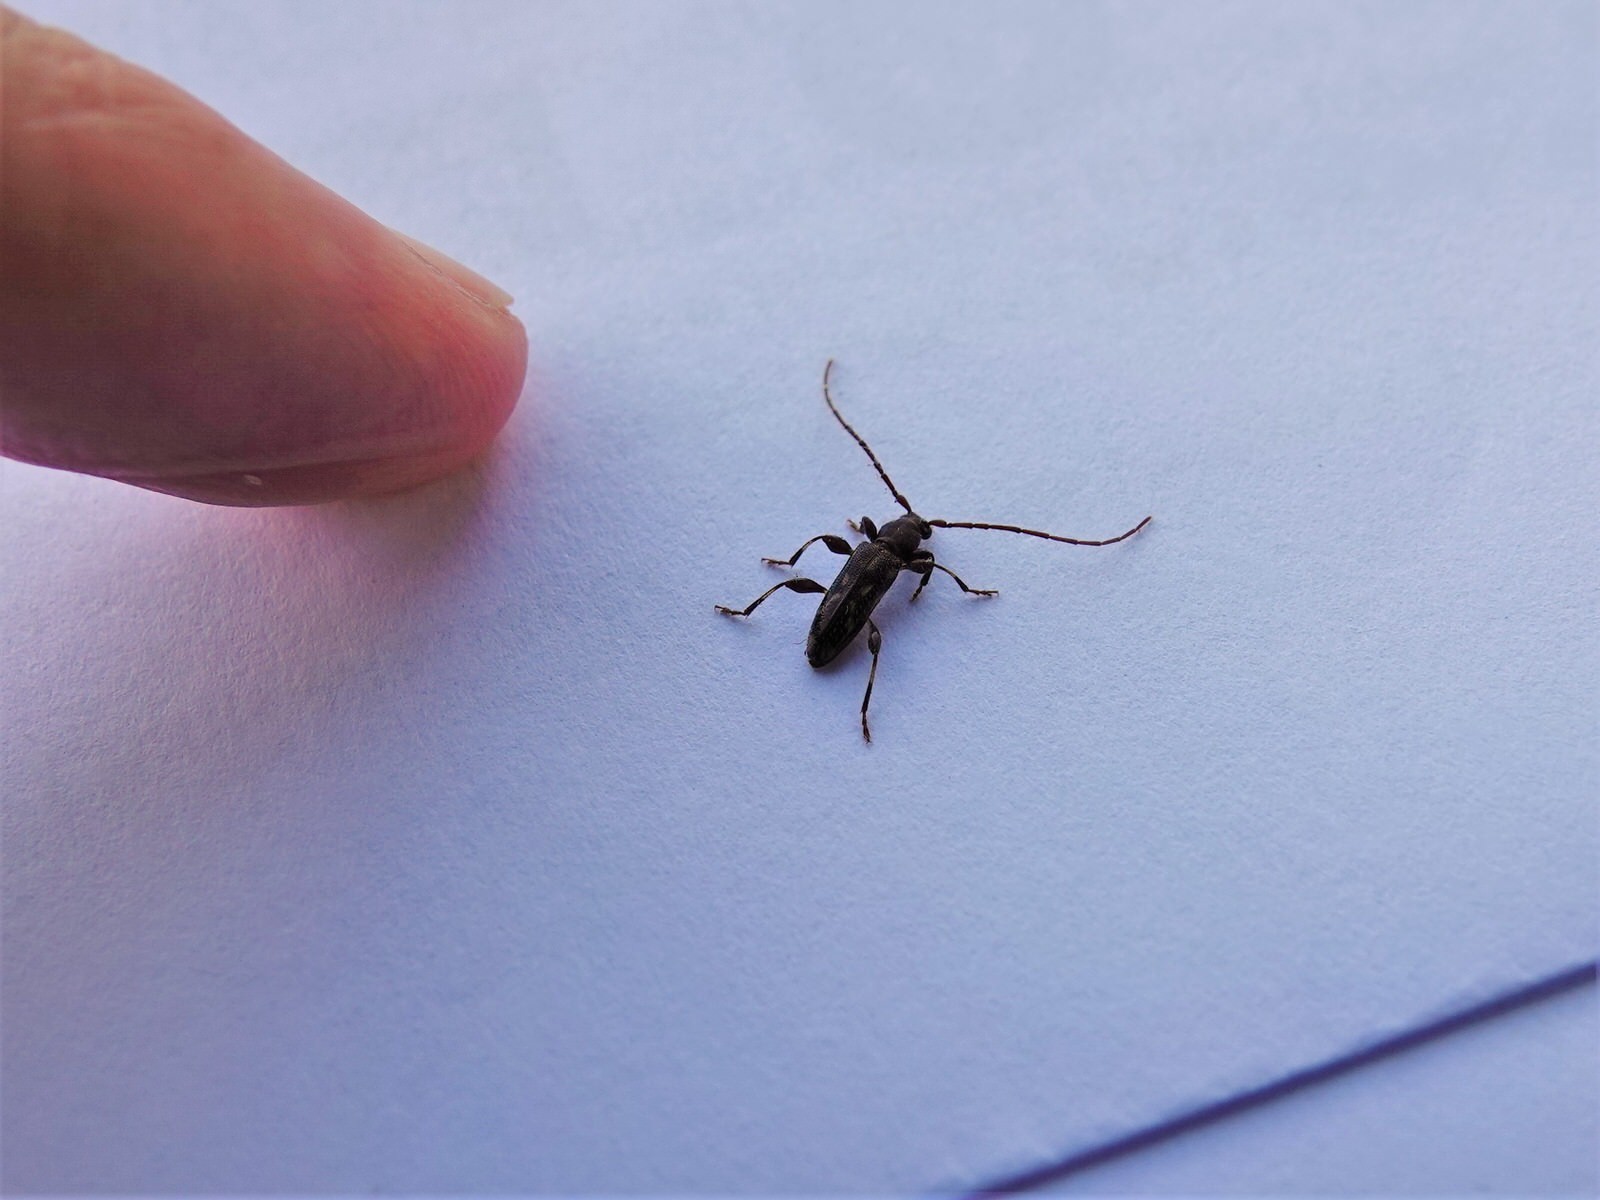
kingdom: Animalia
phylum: Arthropoda
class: Insecta
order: Coleoptera
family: Cerambycidae
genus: Bethelium
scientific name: Bethelium signiferum
